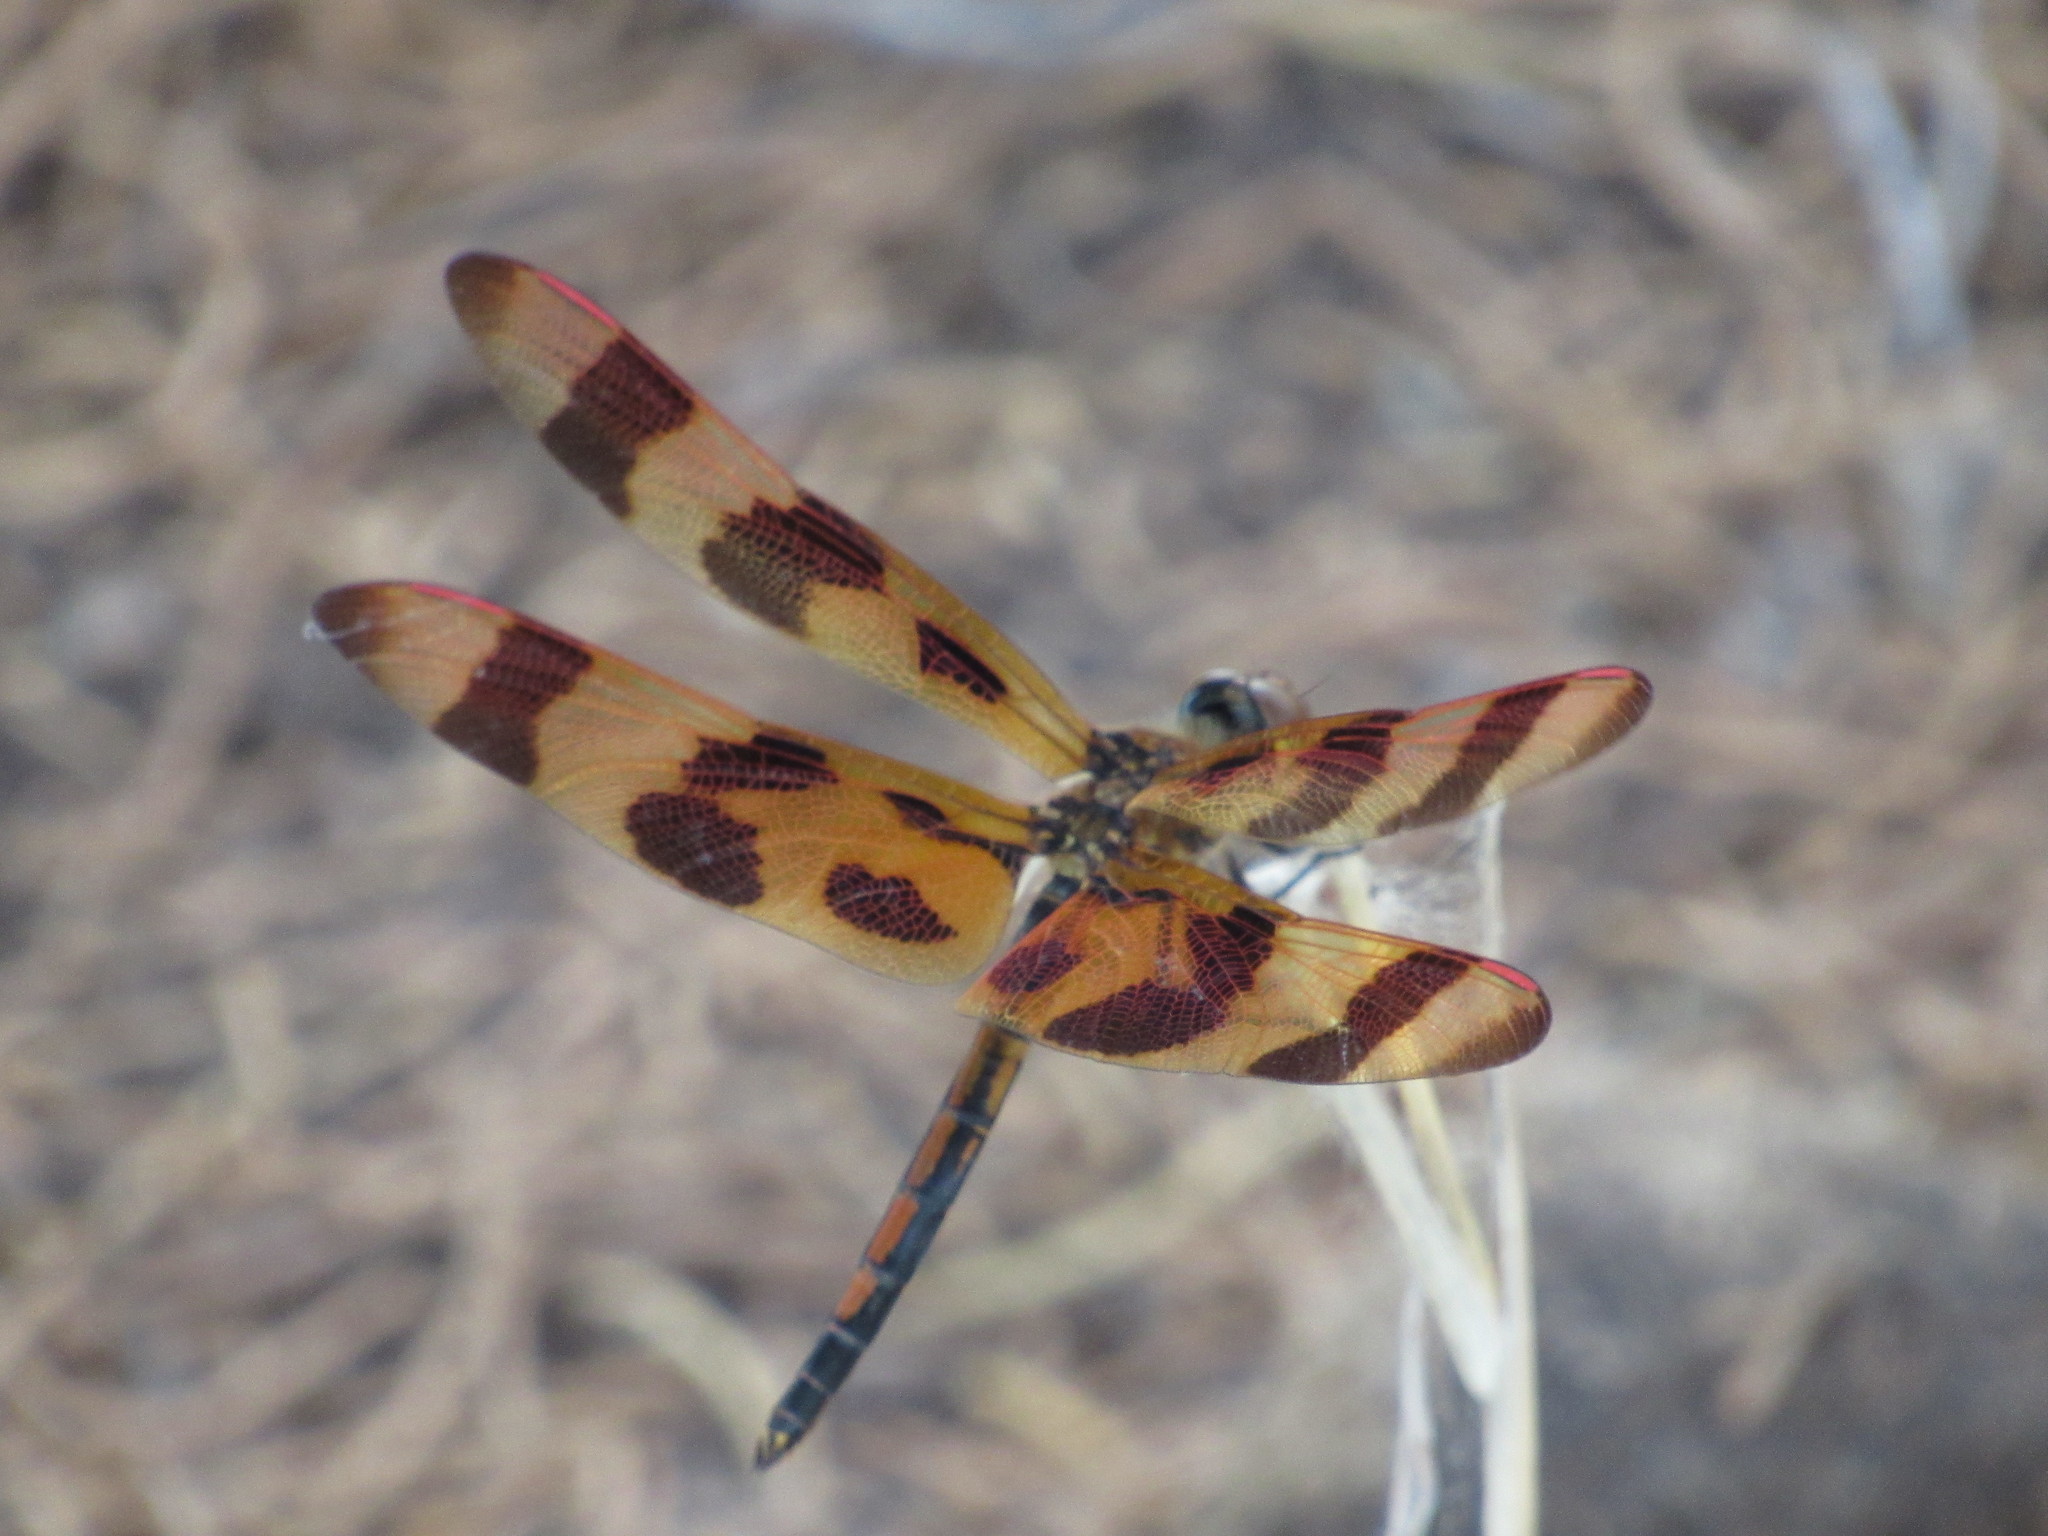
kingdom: Animalia
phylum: Arthropoda
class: Insecta
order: Odonata
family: Libellulidae
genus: Celithemis
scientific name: Celithemis eponina
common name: Halloween pennant
